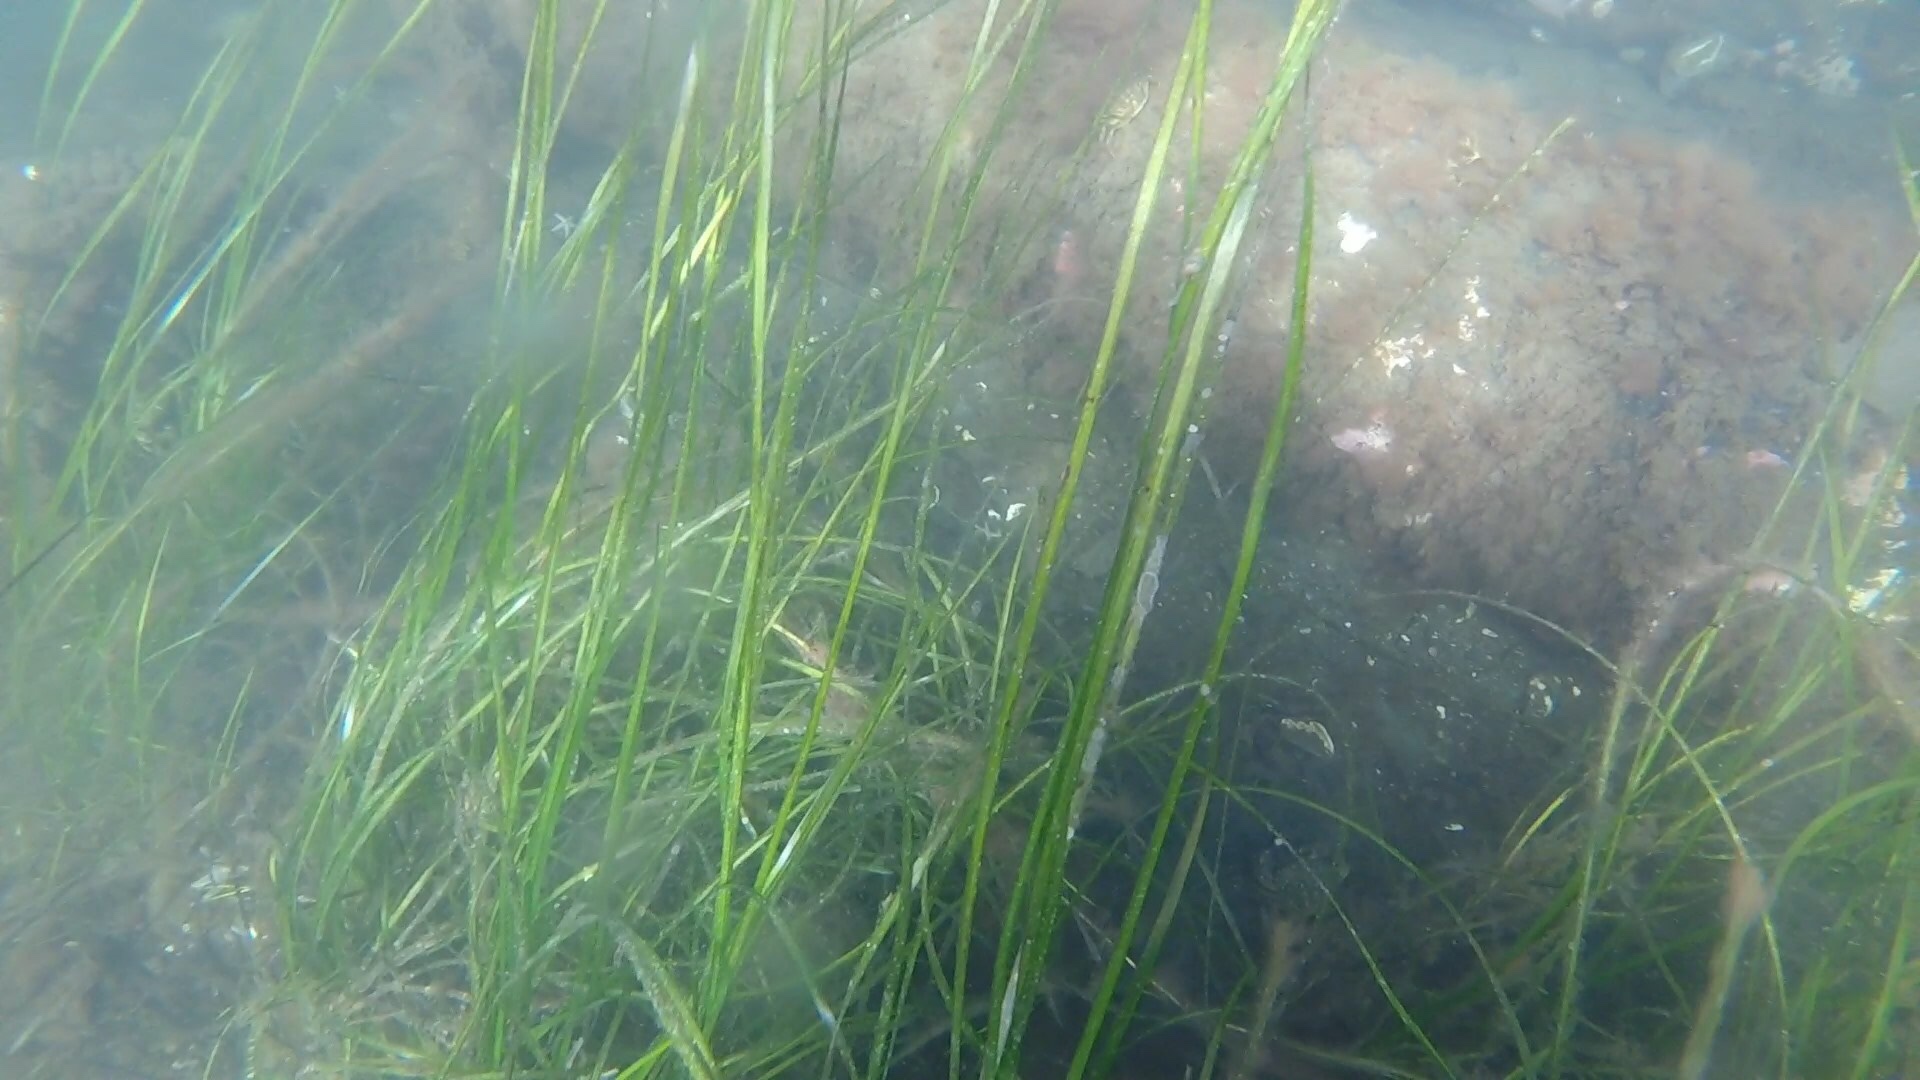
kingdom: Plantae
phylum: Tracheophyta
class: Liliopsida
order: Alismatales
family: Zosteraceae
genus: Zostera
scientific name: Zostera marina
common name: Eelgrass
